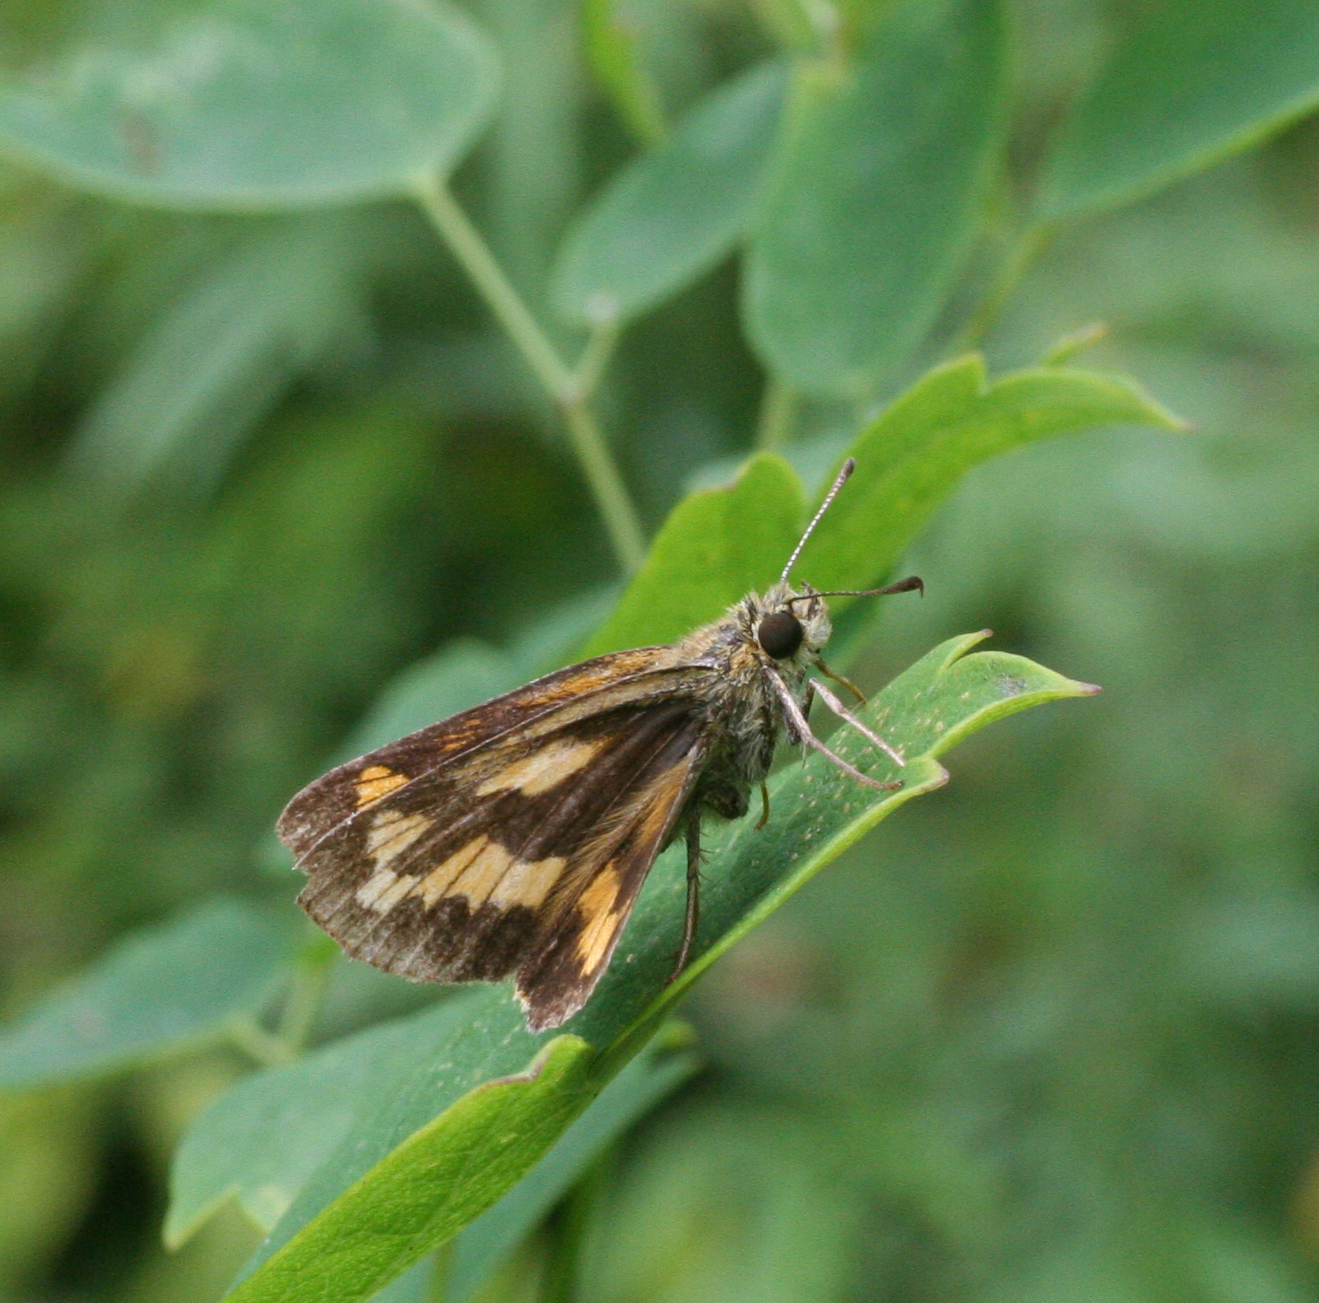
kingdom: Animalia
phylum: Arthropoda
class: Insecta
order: Lepidoptera
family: Hesperiidae
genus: Potanthus
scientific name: Potanthus flava
